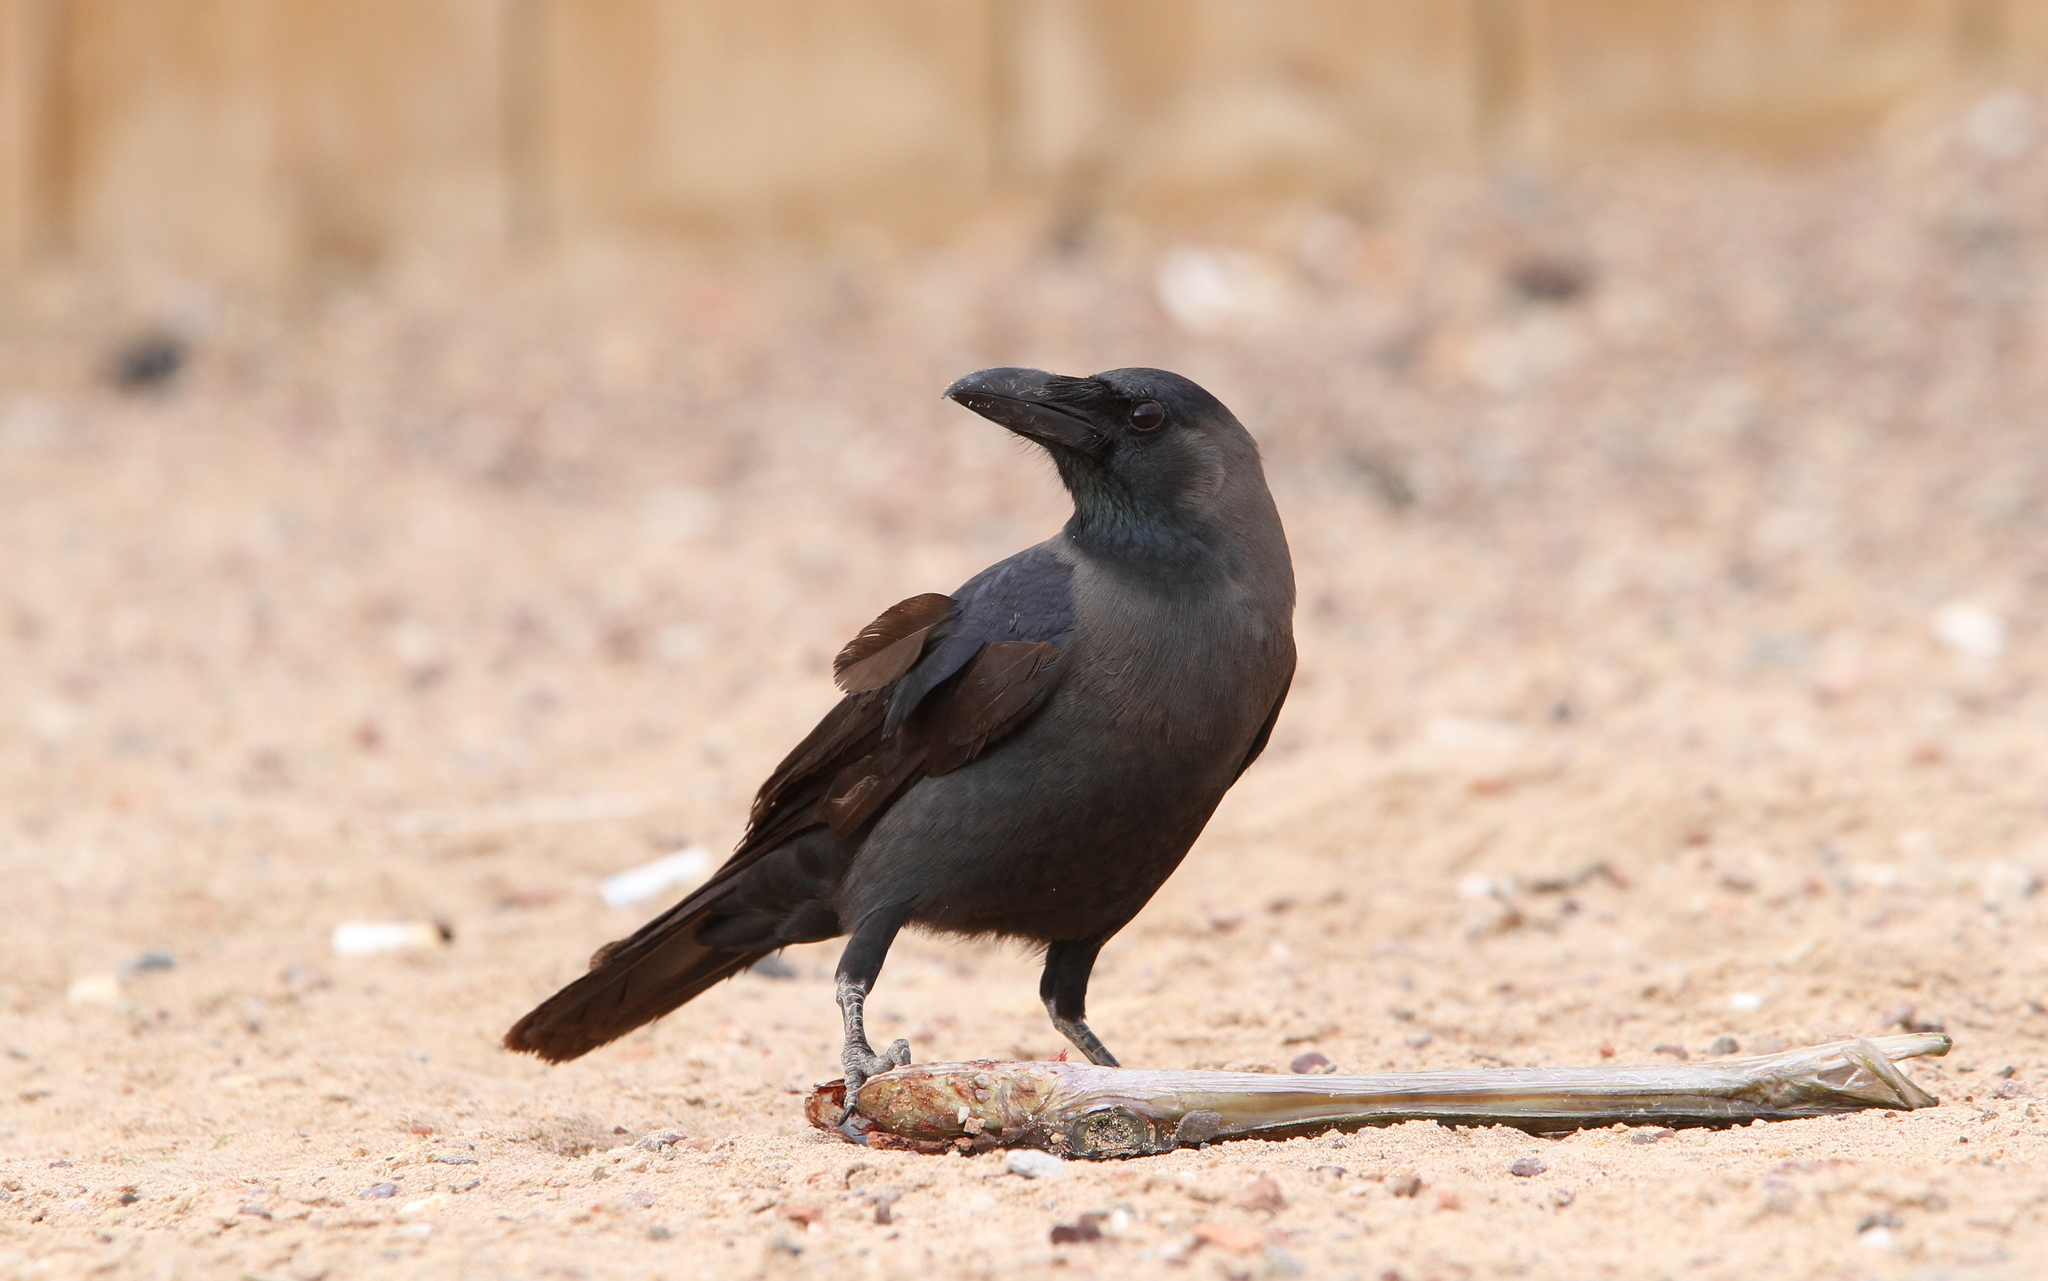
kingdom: Animalia
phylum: Chordata
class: Aves
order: Passeriformes
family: Corvidae
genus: Corvus
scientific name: Corvus splendens
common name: House crow
